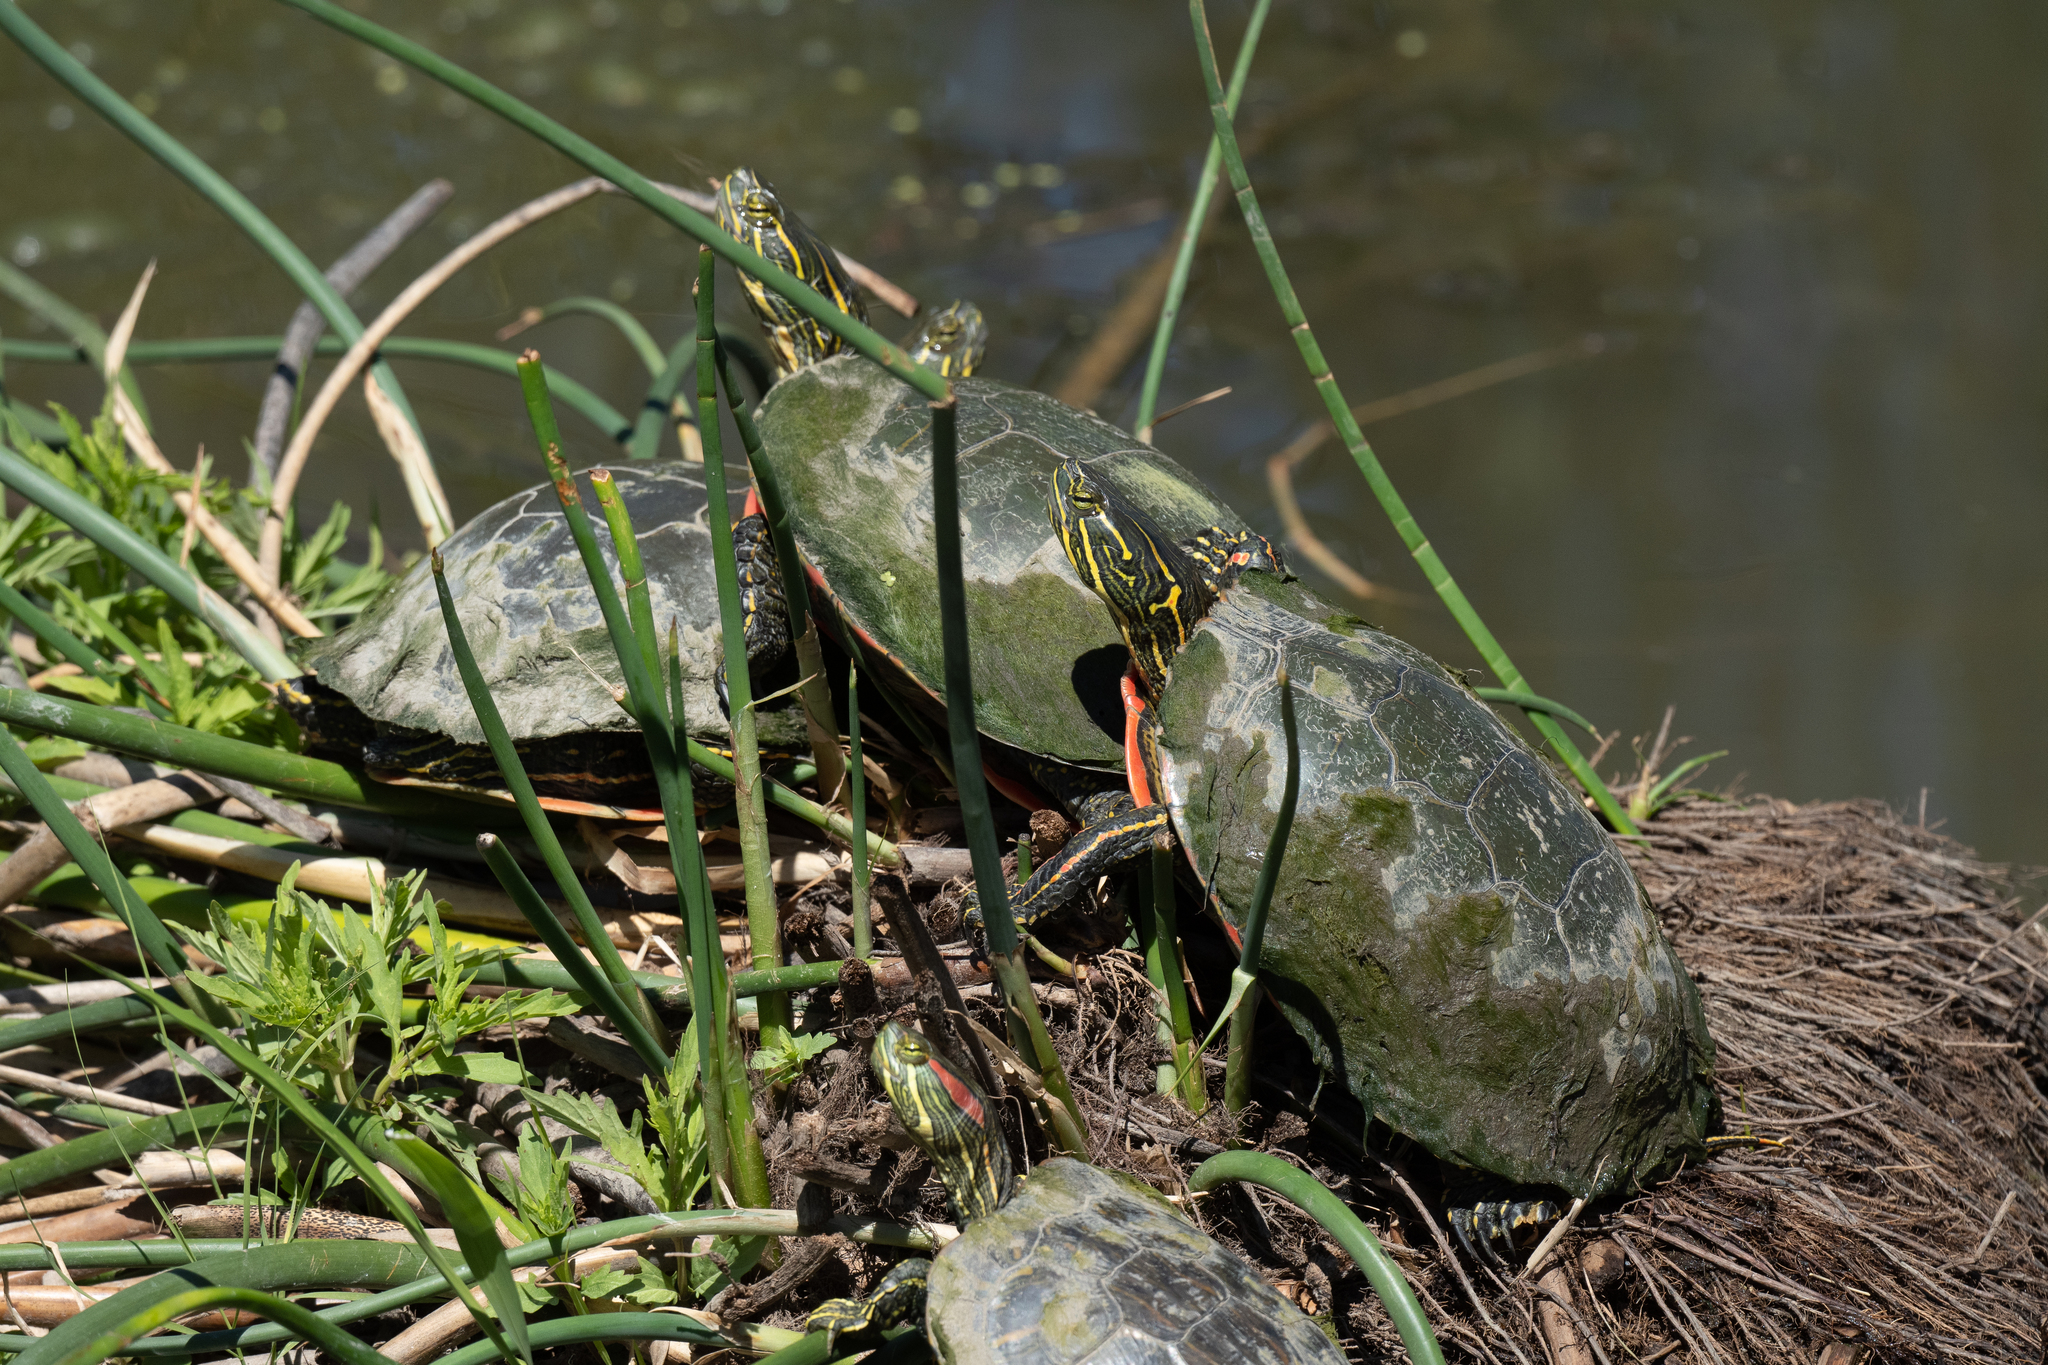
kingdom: Animalia
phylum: Chordata
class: Testudines
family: Emydidae
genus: Chrysemys
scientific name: Chrysemys picta
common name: Painted turtle
